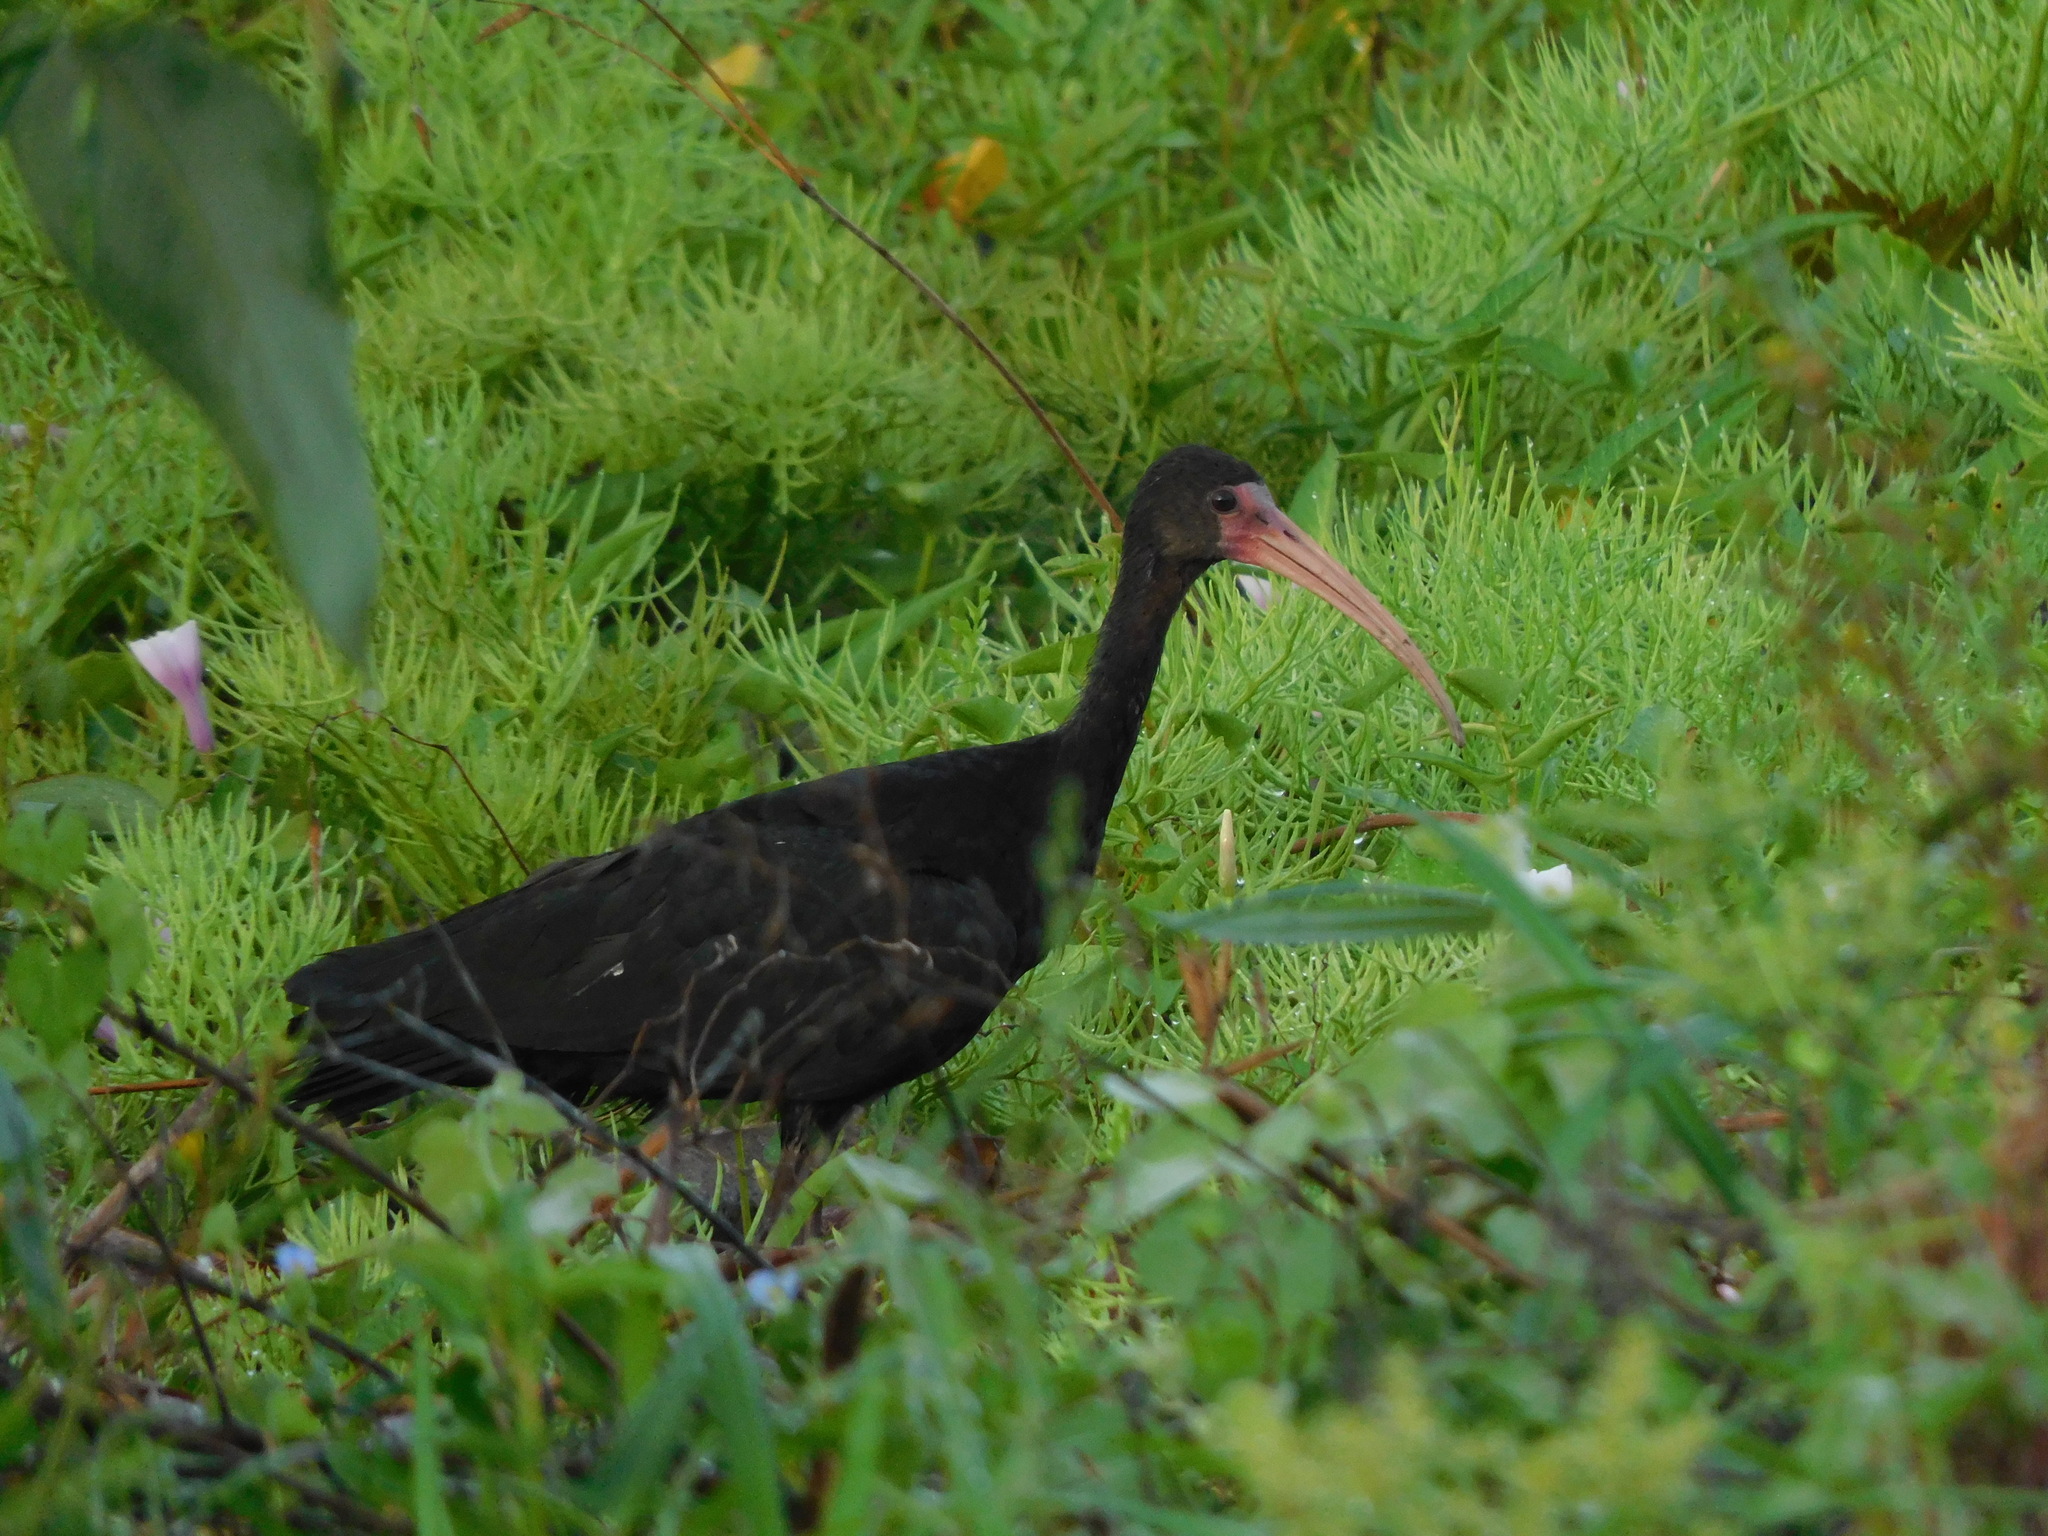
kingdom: Animalia
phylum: Chordata
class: Aves
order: Pelecaniformes
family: Threskiornithidae
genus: Phimosus
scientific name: Phimosus infuscatus
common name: Bare-faced ibis
